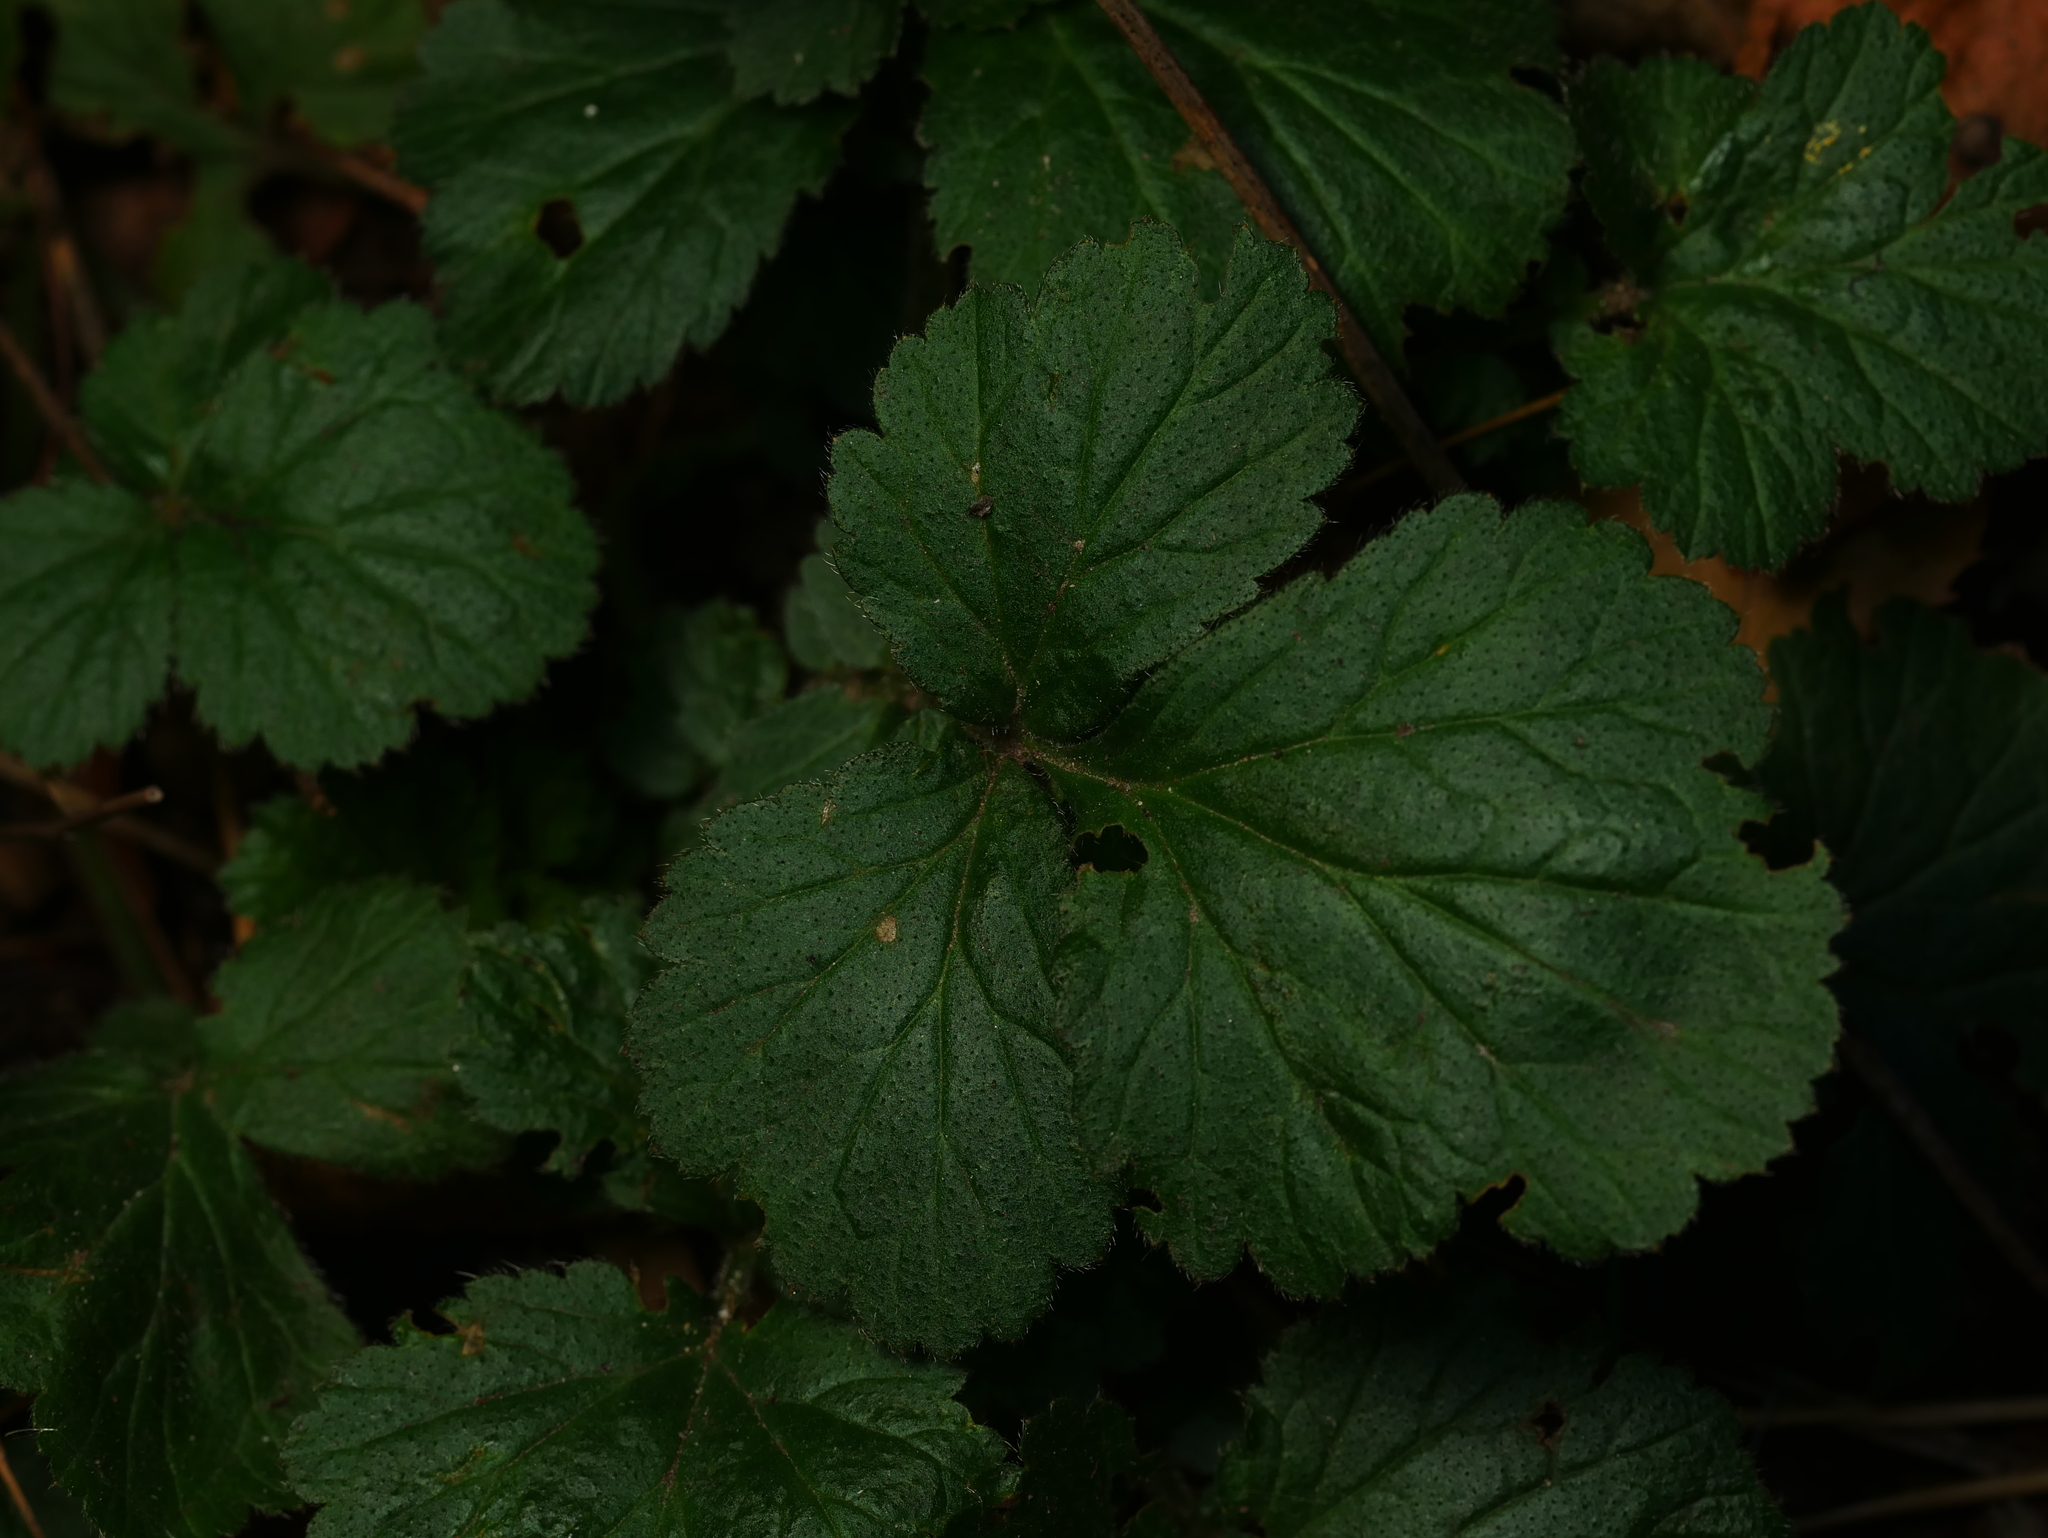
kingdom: Plantae
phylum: Tracheophyta
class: Magnoliopsida
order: Rosales
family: Rosaceae
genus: Geum
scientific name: Geum urbanum
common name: Wood avens
